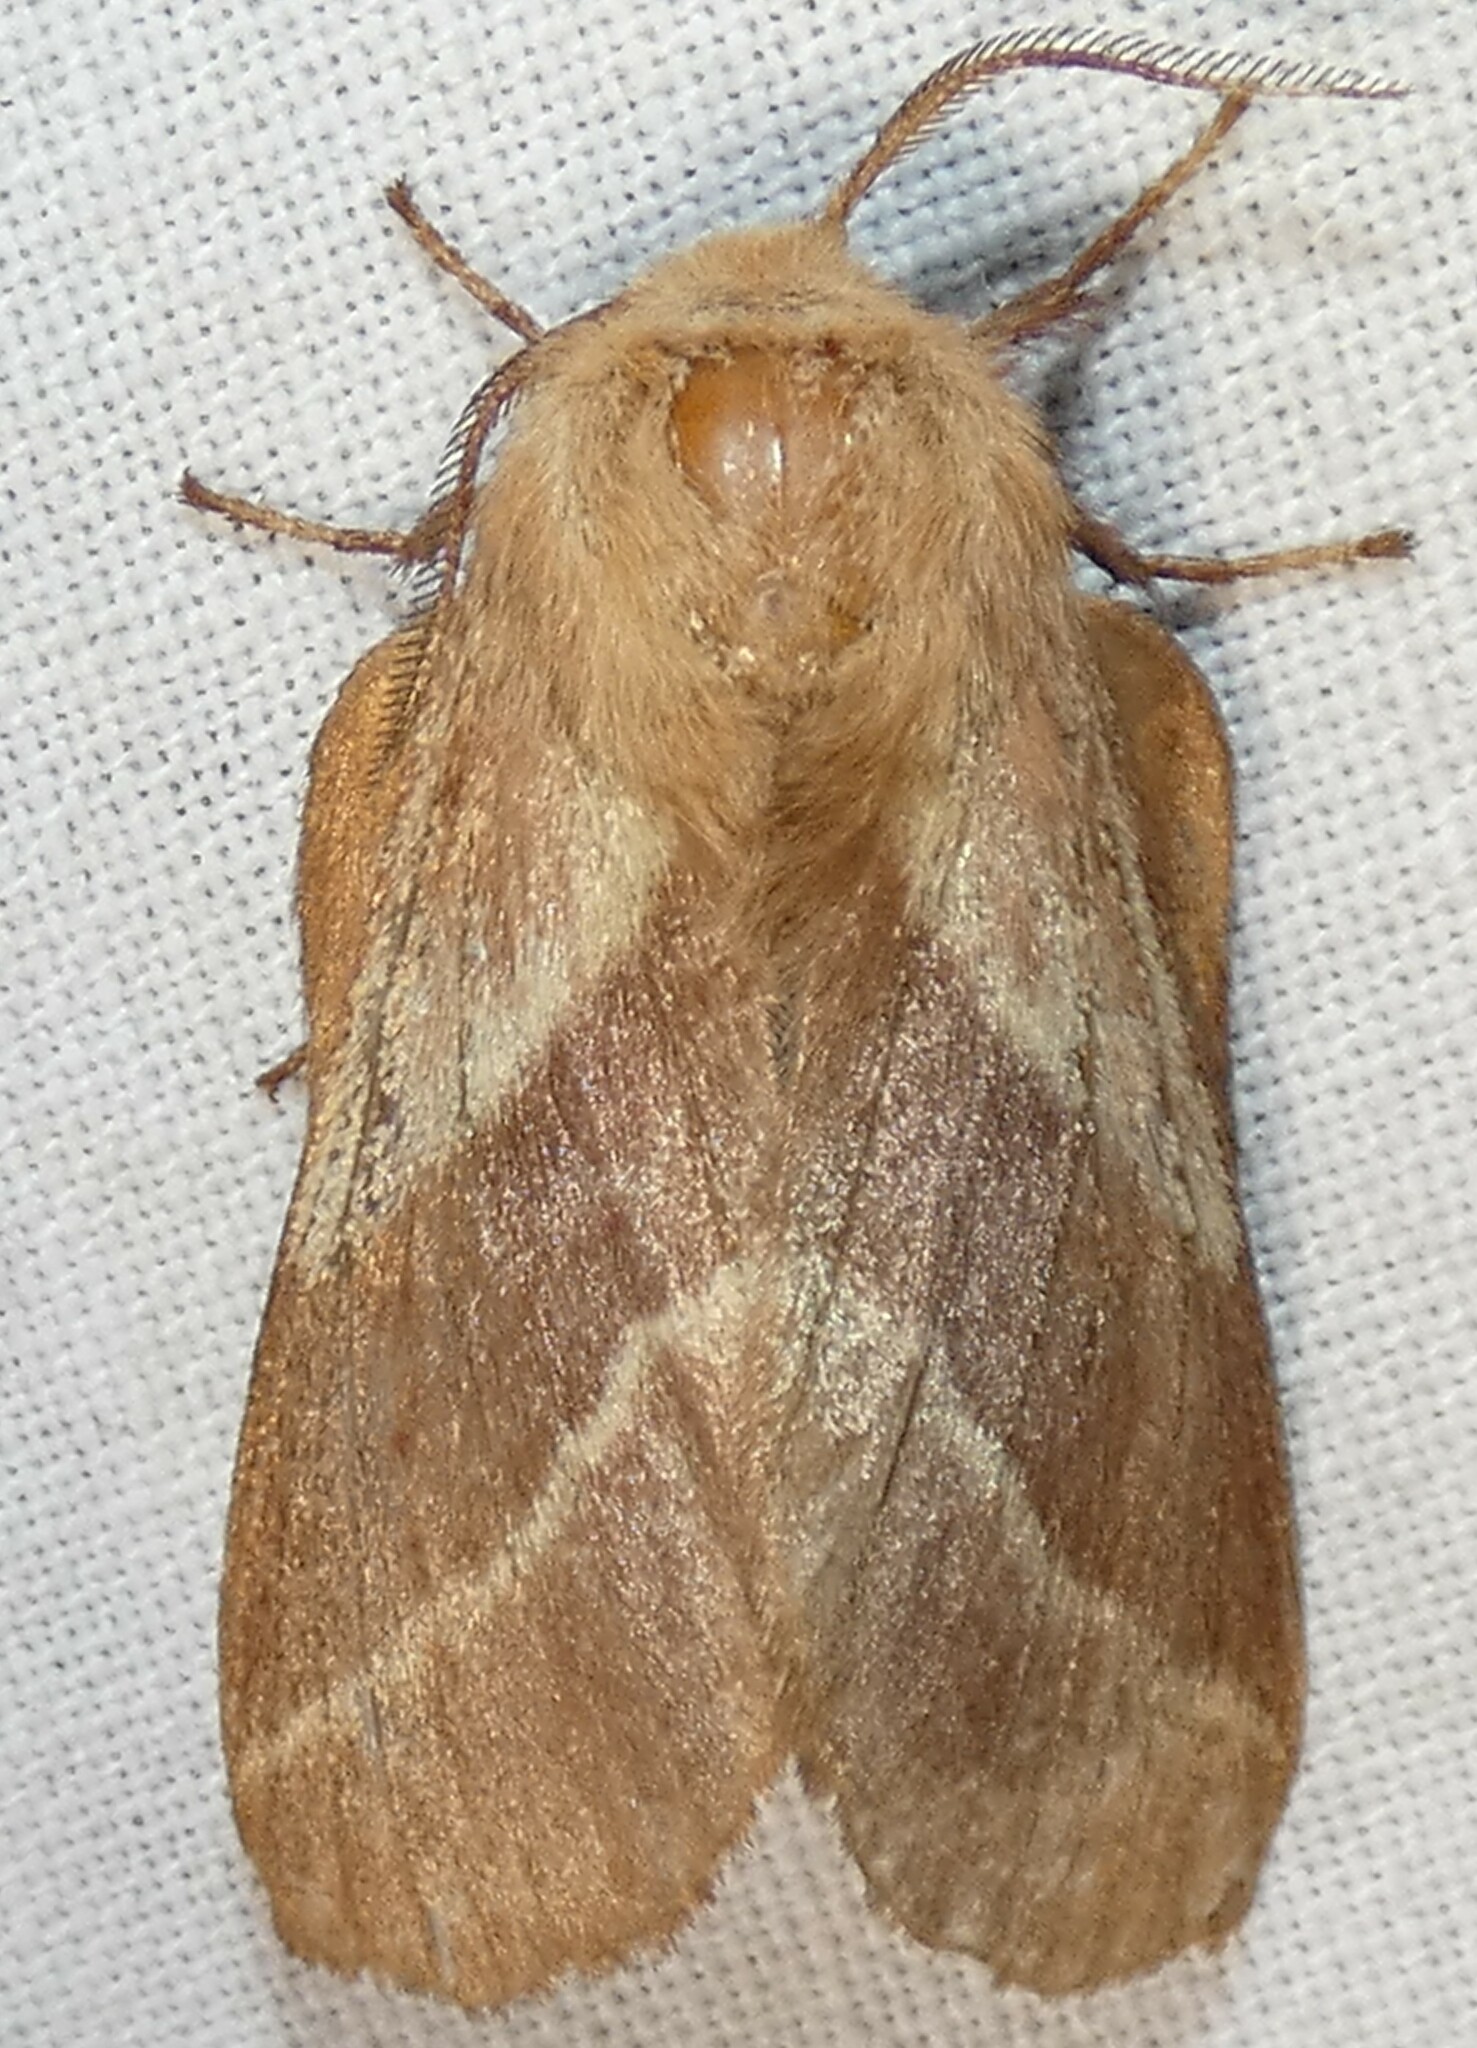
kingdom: Animalia
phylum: Arthropoda
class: Insecta
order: Lepidoptera
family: Lasiocampidae
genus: Malacosoma
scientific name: Malacosoma americana
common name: Eastern tent caterpillar moth
